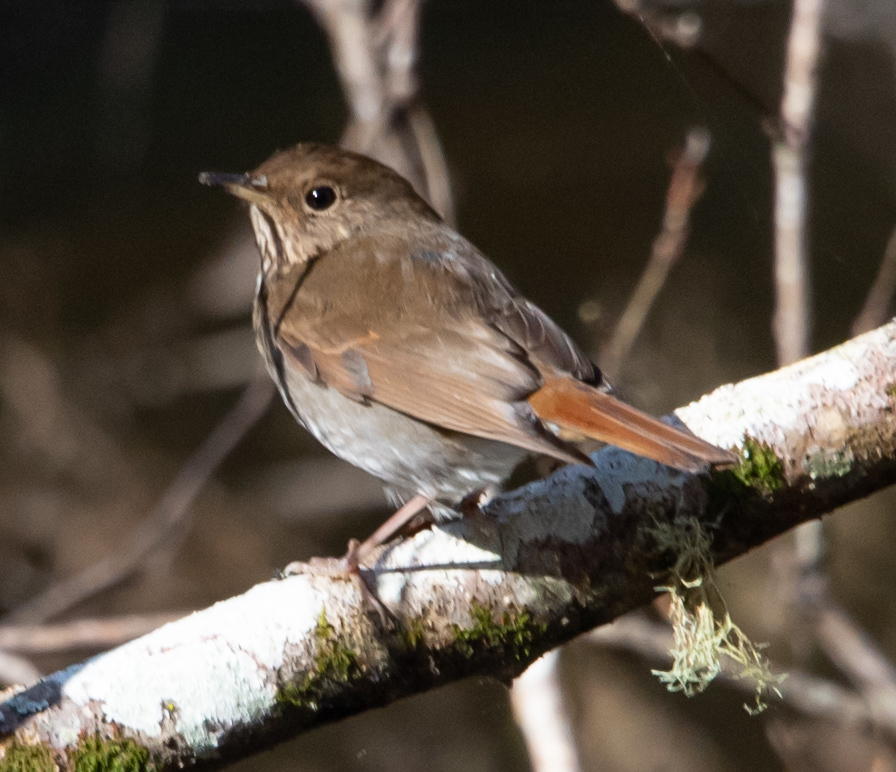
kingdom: Animalia
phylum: Chordata
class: Aves
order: Passeriformes
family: Turdidae
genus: Catharus
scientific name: Catharus guttatus
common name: Hermit thrush
